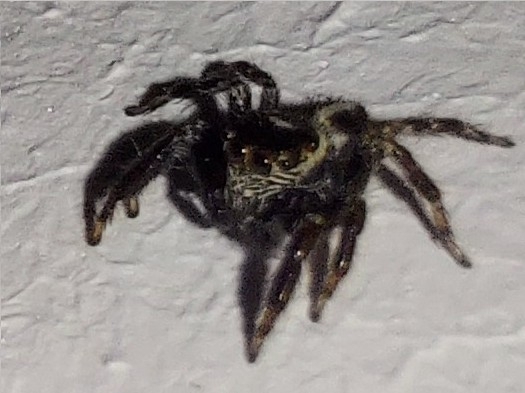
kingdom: Animalia
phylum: Arthropoda
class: Arachnida
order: Araneae
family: Salticidae
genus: Evarcha
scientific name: Evarcha denticulata
